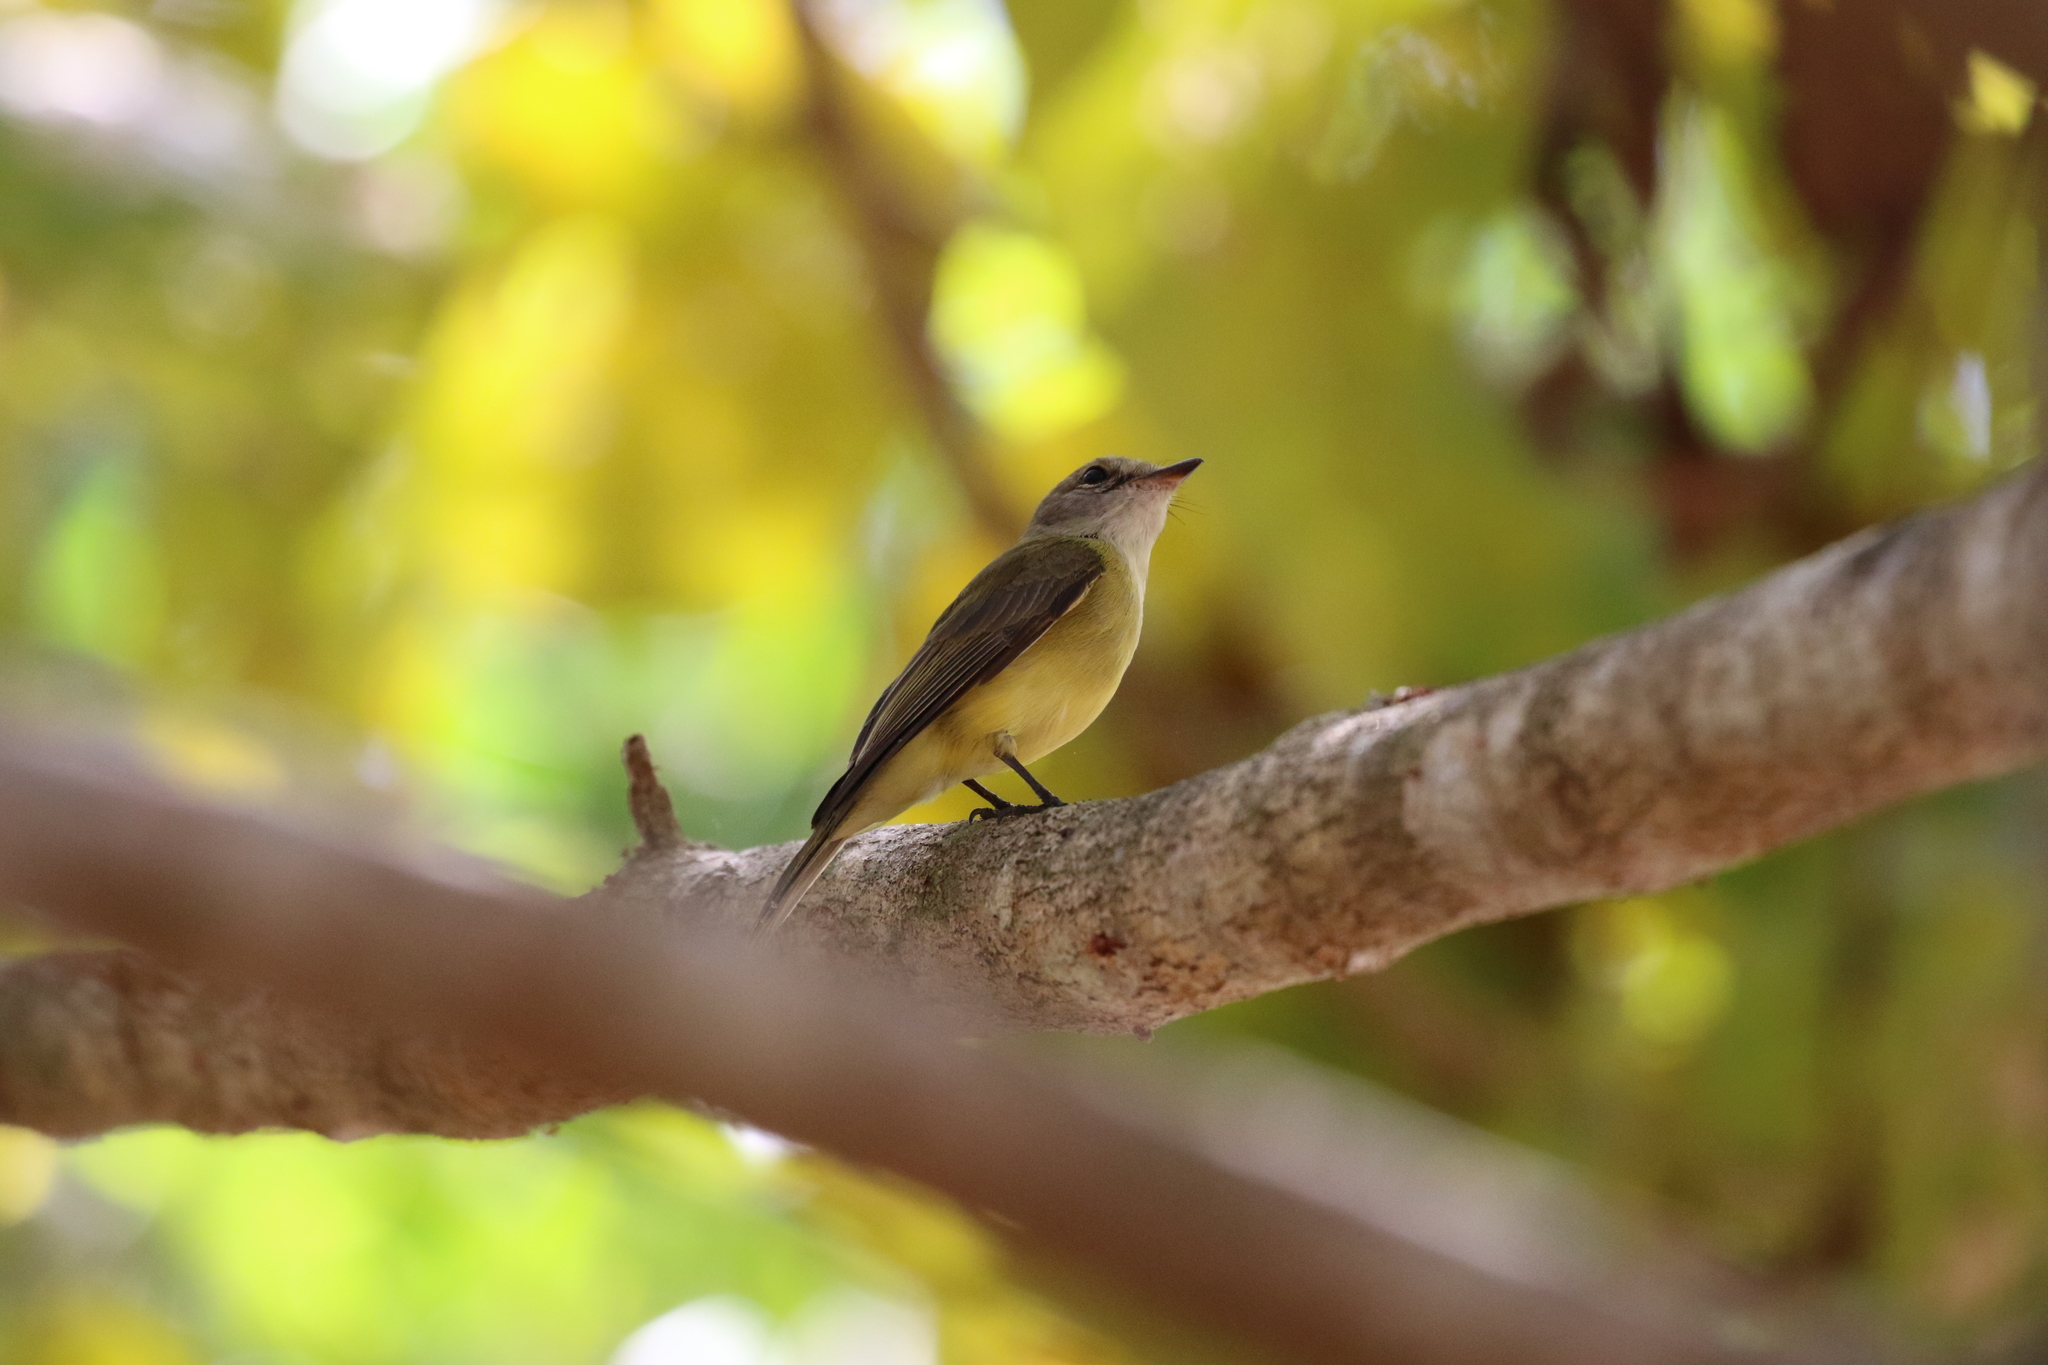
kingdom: Animalia
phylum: Chordata
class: Aves
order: Passeriformes
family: Petroicidae
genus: Microeca
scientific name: Microeca flavigaster
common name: Lemon-bellied flyrobin
